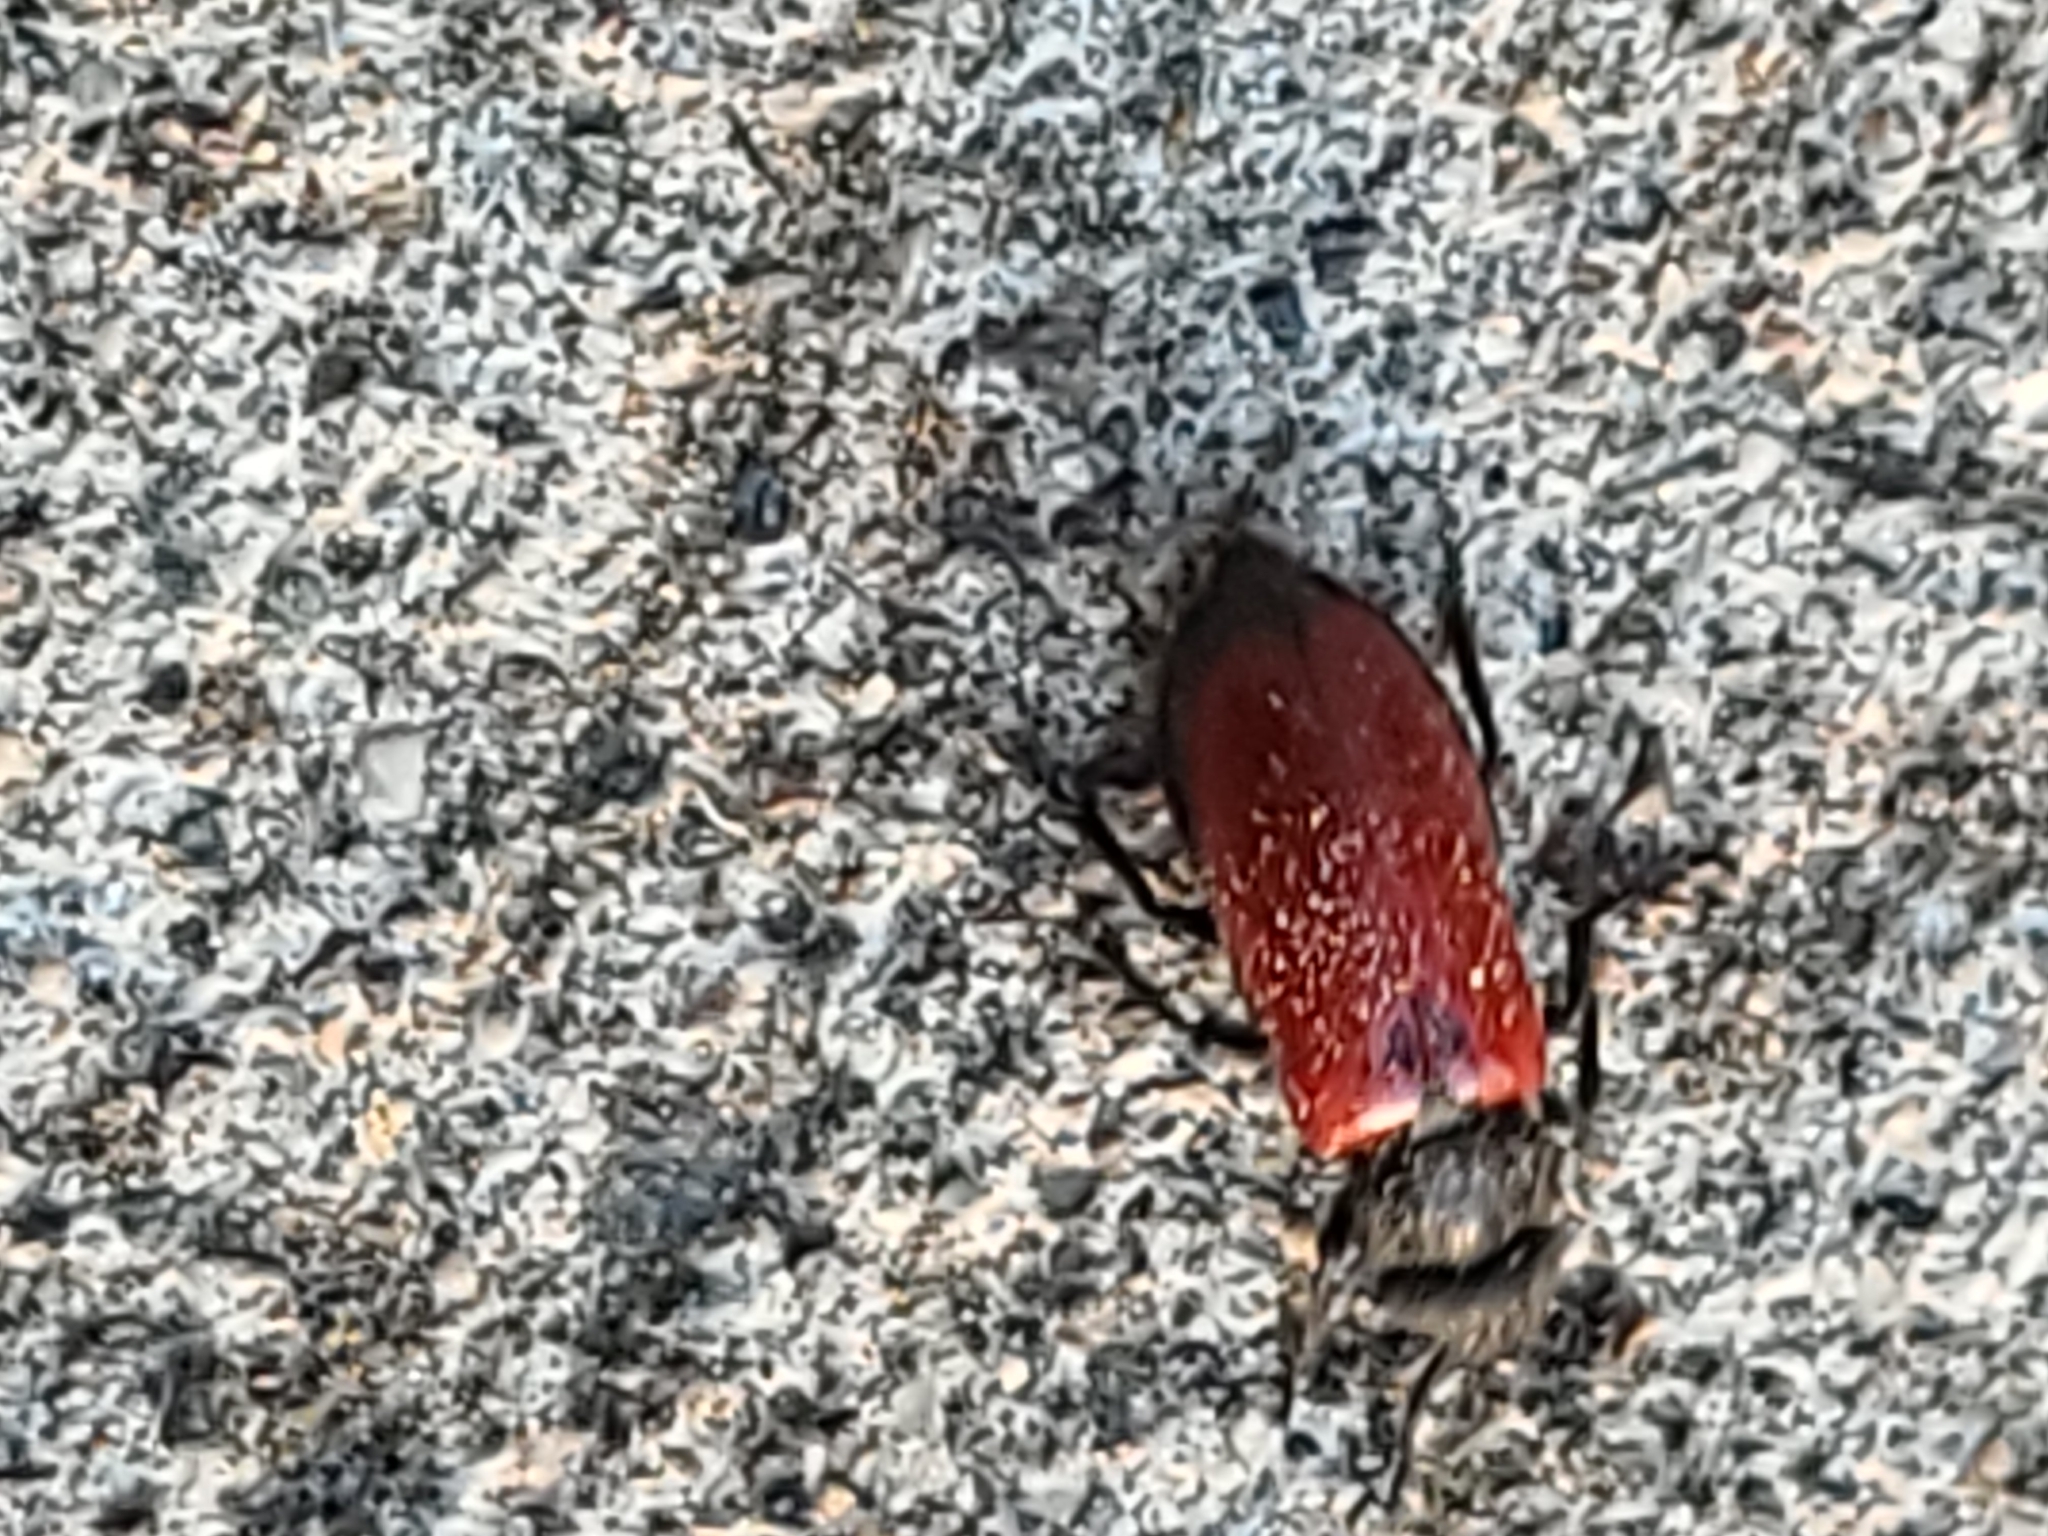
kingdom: Animalia
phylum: Arthropoda
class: Insecta
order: Coleoptera
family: Meloidae
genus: Tricrania
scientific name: Tricrania stansburii
